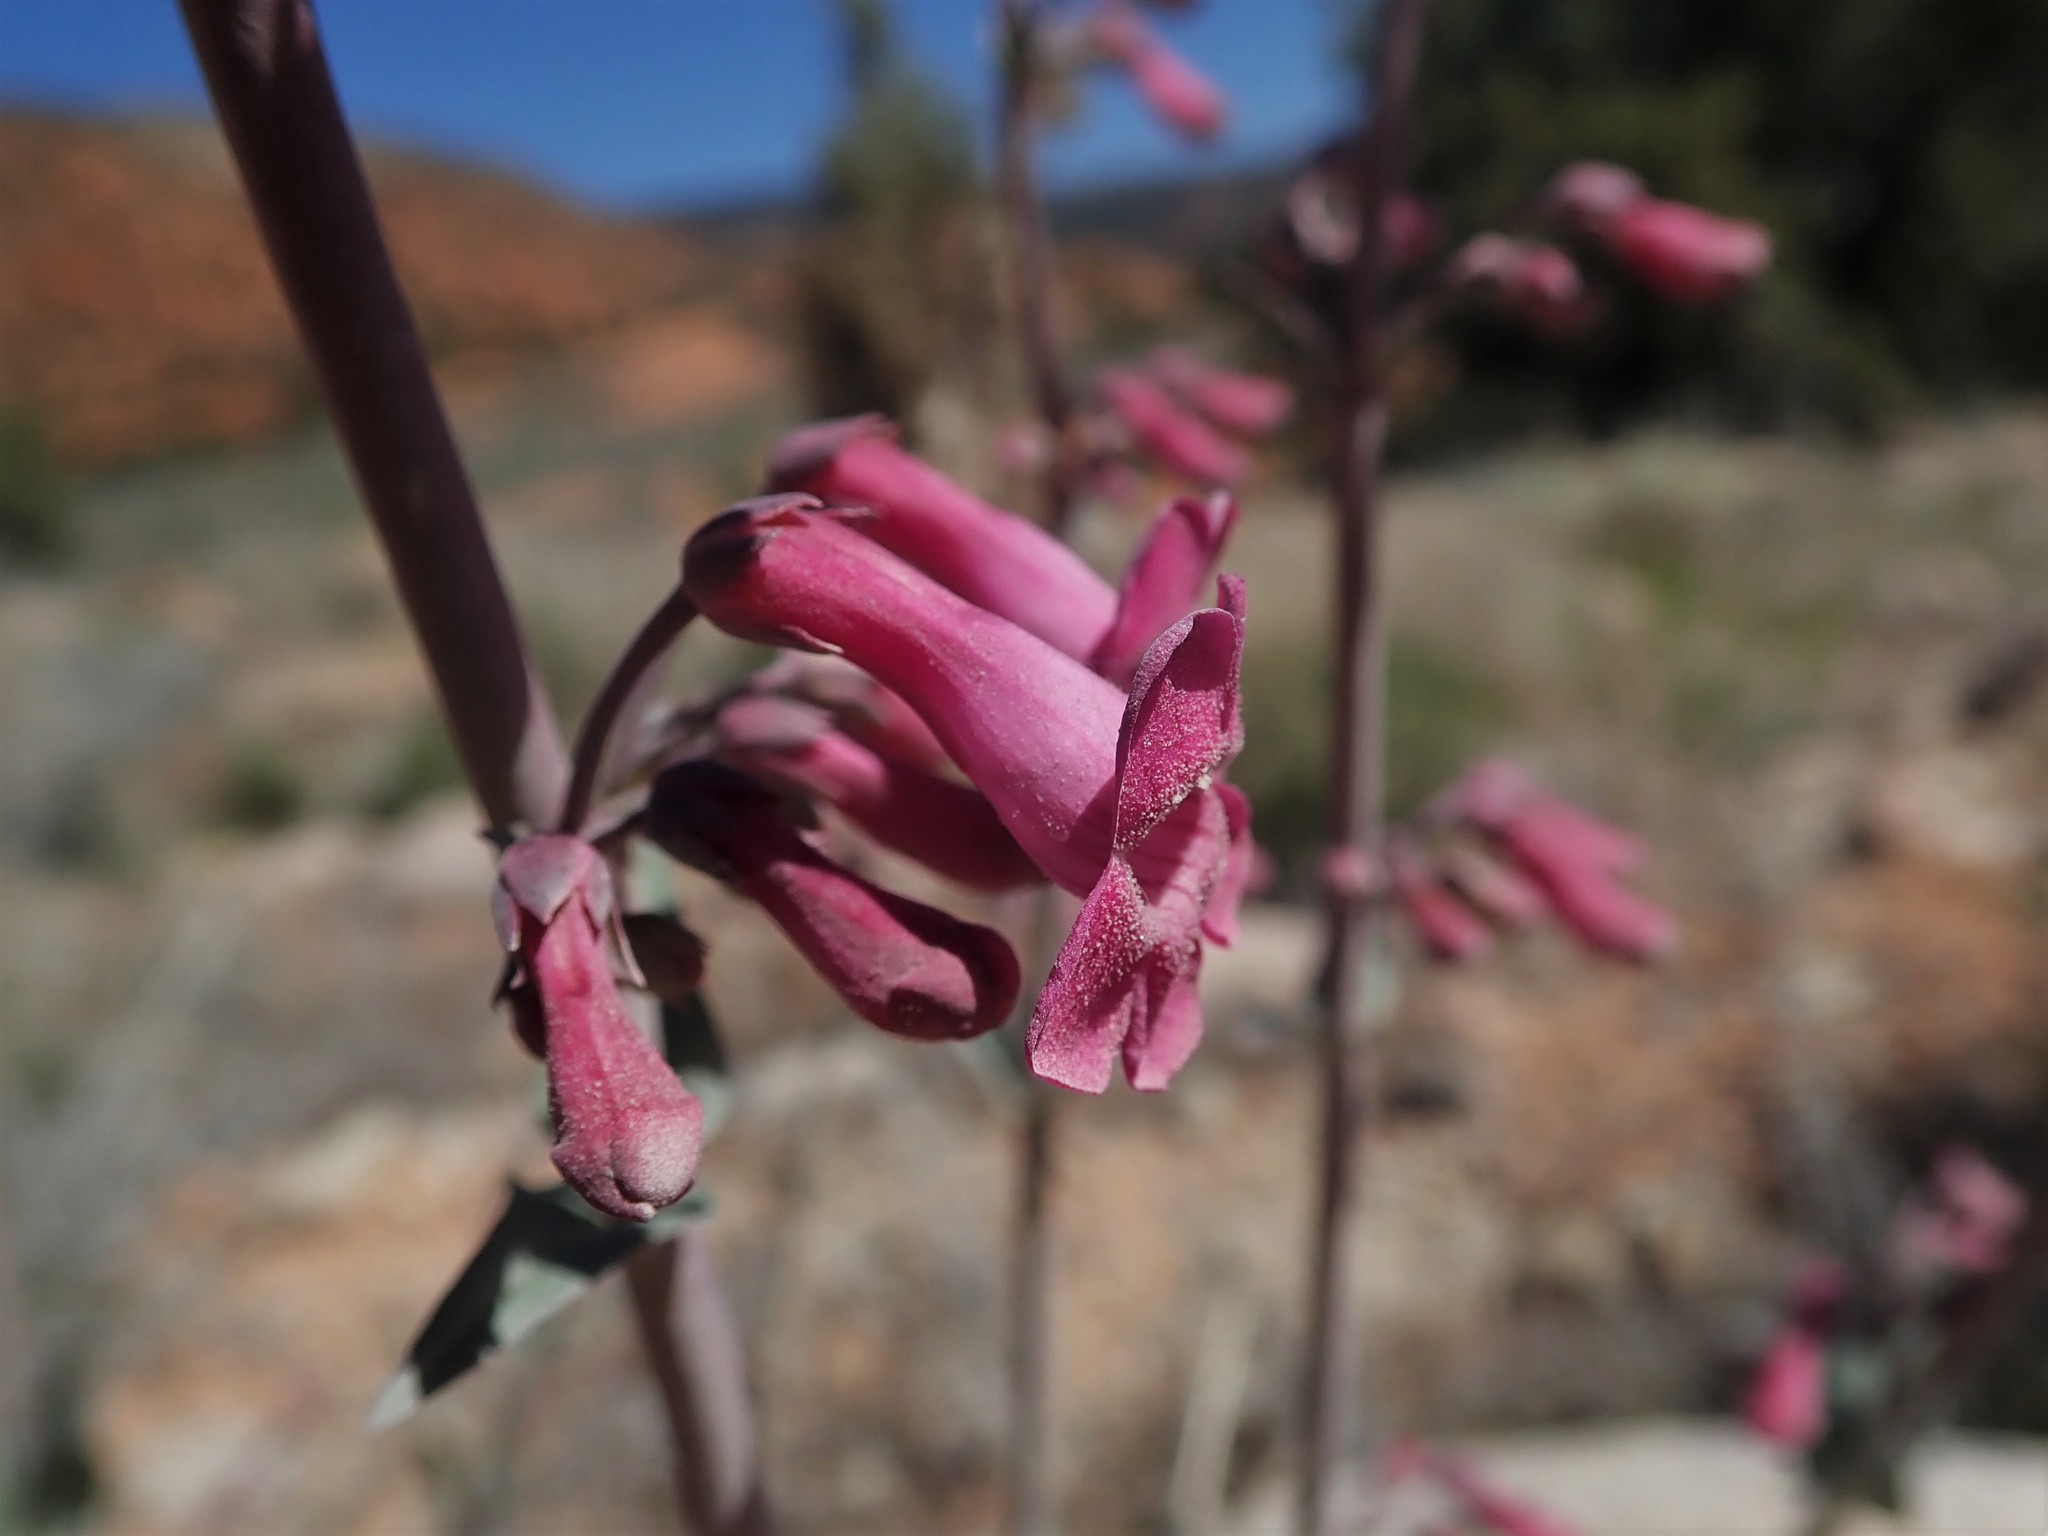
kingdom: Plantae
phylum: Tracheophyta
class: Magnoliopsida
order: Lamiales
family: Plantaginaceae
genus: Penstemon
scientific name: Penstemon confusus
